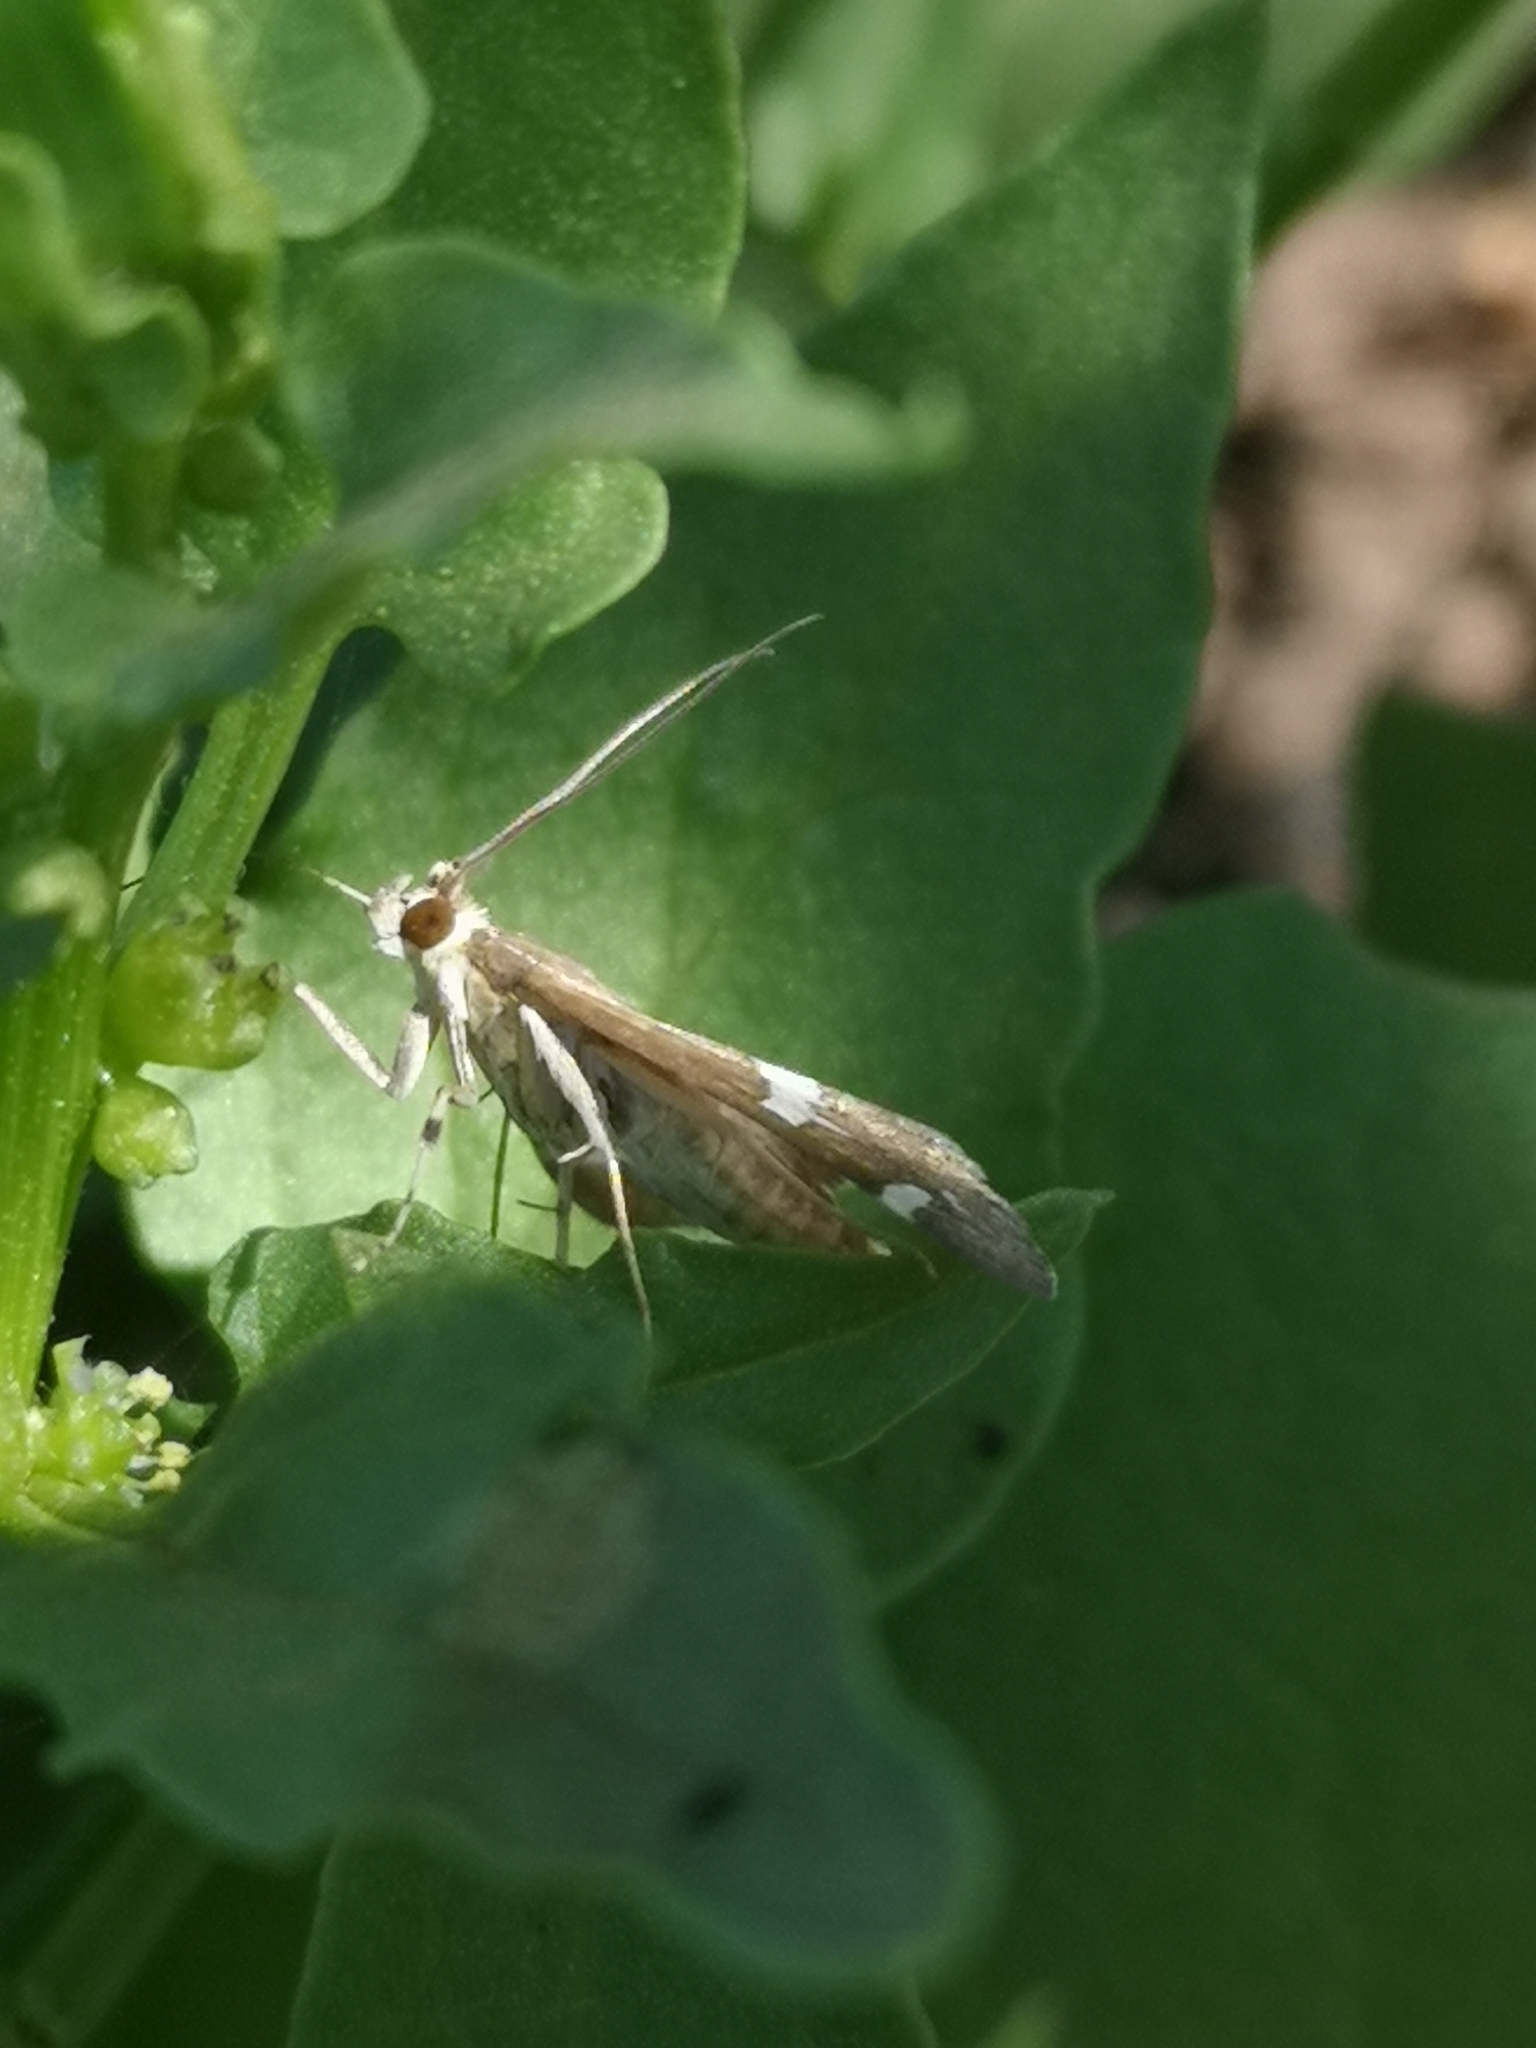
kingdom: Animalia
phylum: Arthropoda
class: Insecta
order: Lepidoptera
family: Crambidae
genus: Spoladea
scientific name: Spoladea recurvalis
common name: Beet webworm moth
